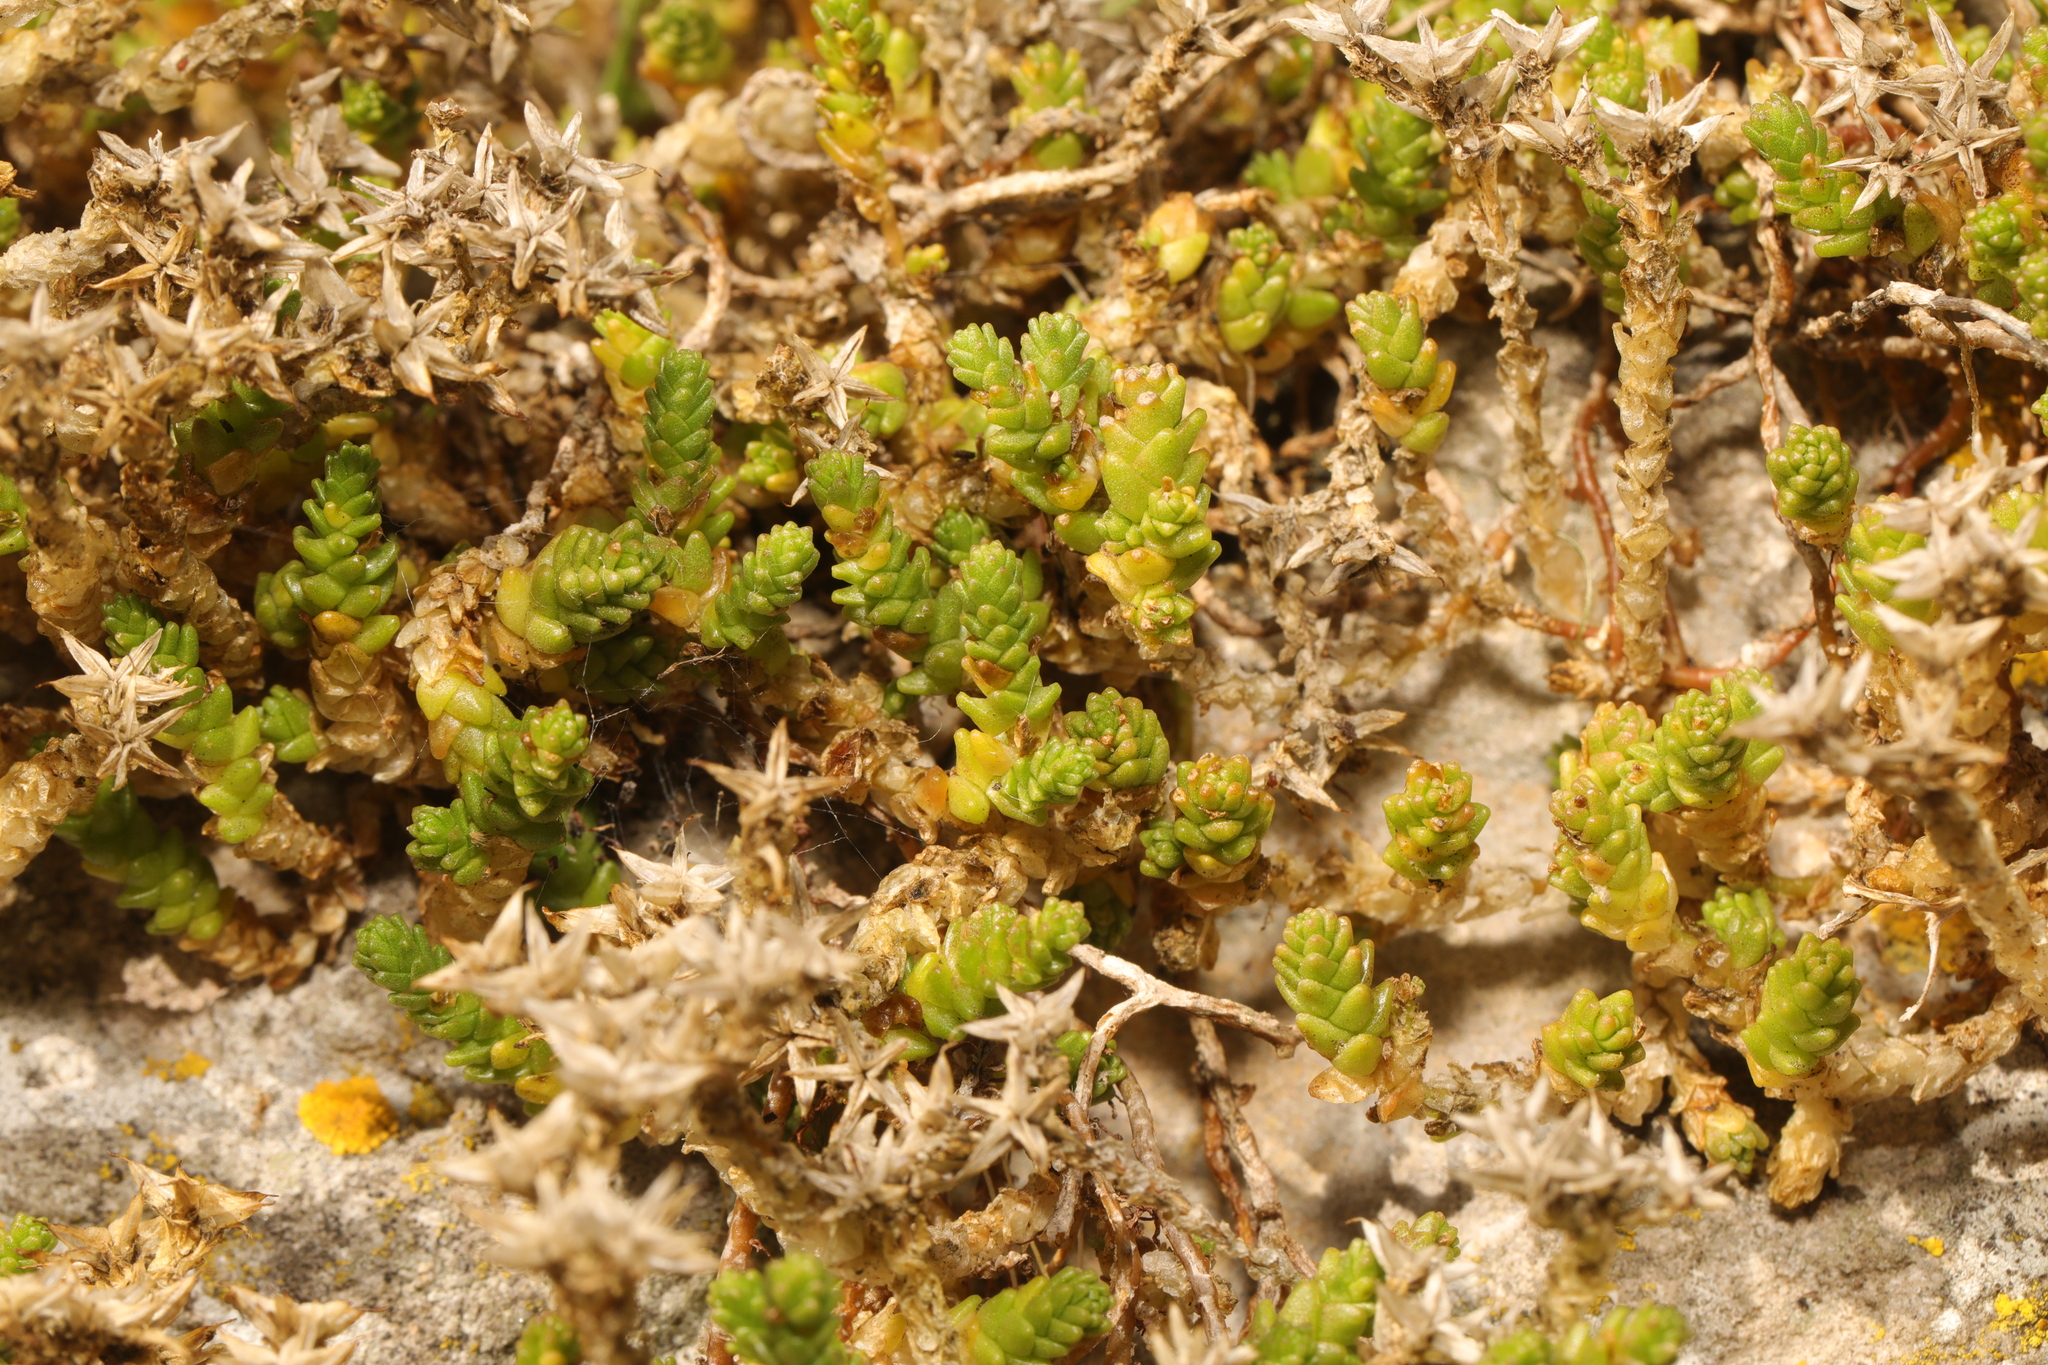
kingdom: Plantae
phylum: Tracheophyta
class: Magnoliopsida
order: Saxifragales
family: Crassulaceae
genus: Sedum
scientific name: Sedum acre
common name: Biting stonecrop
